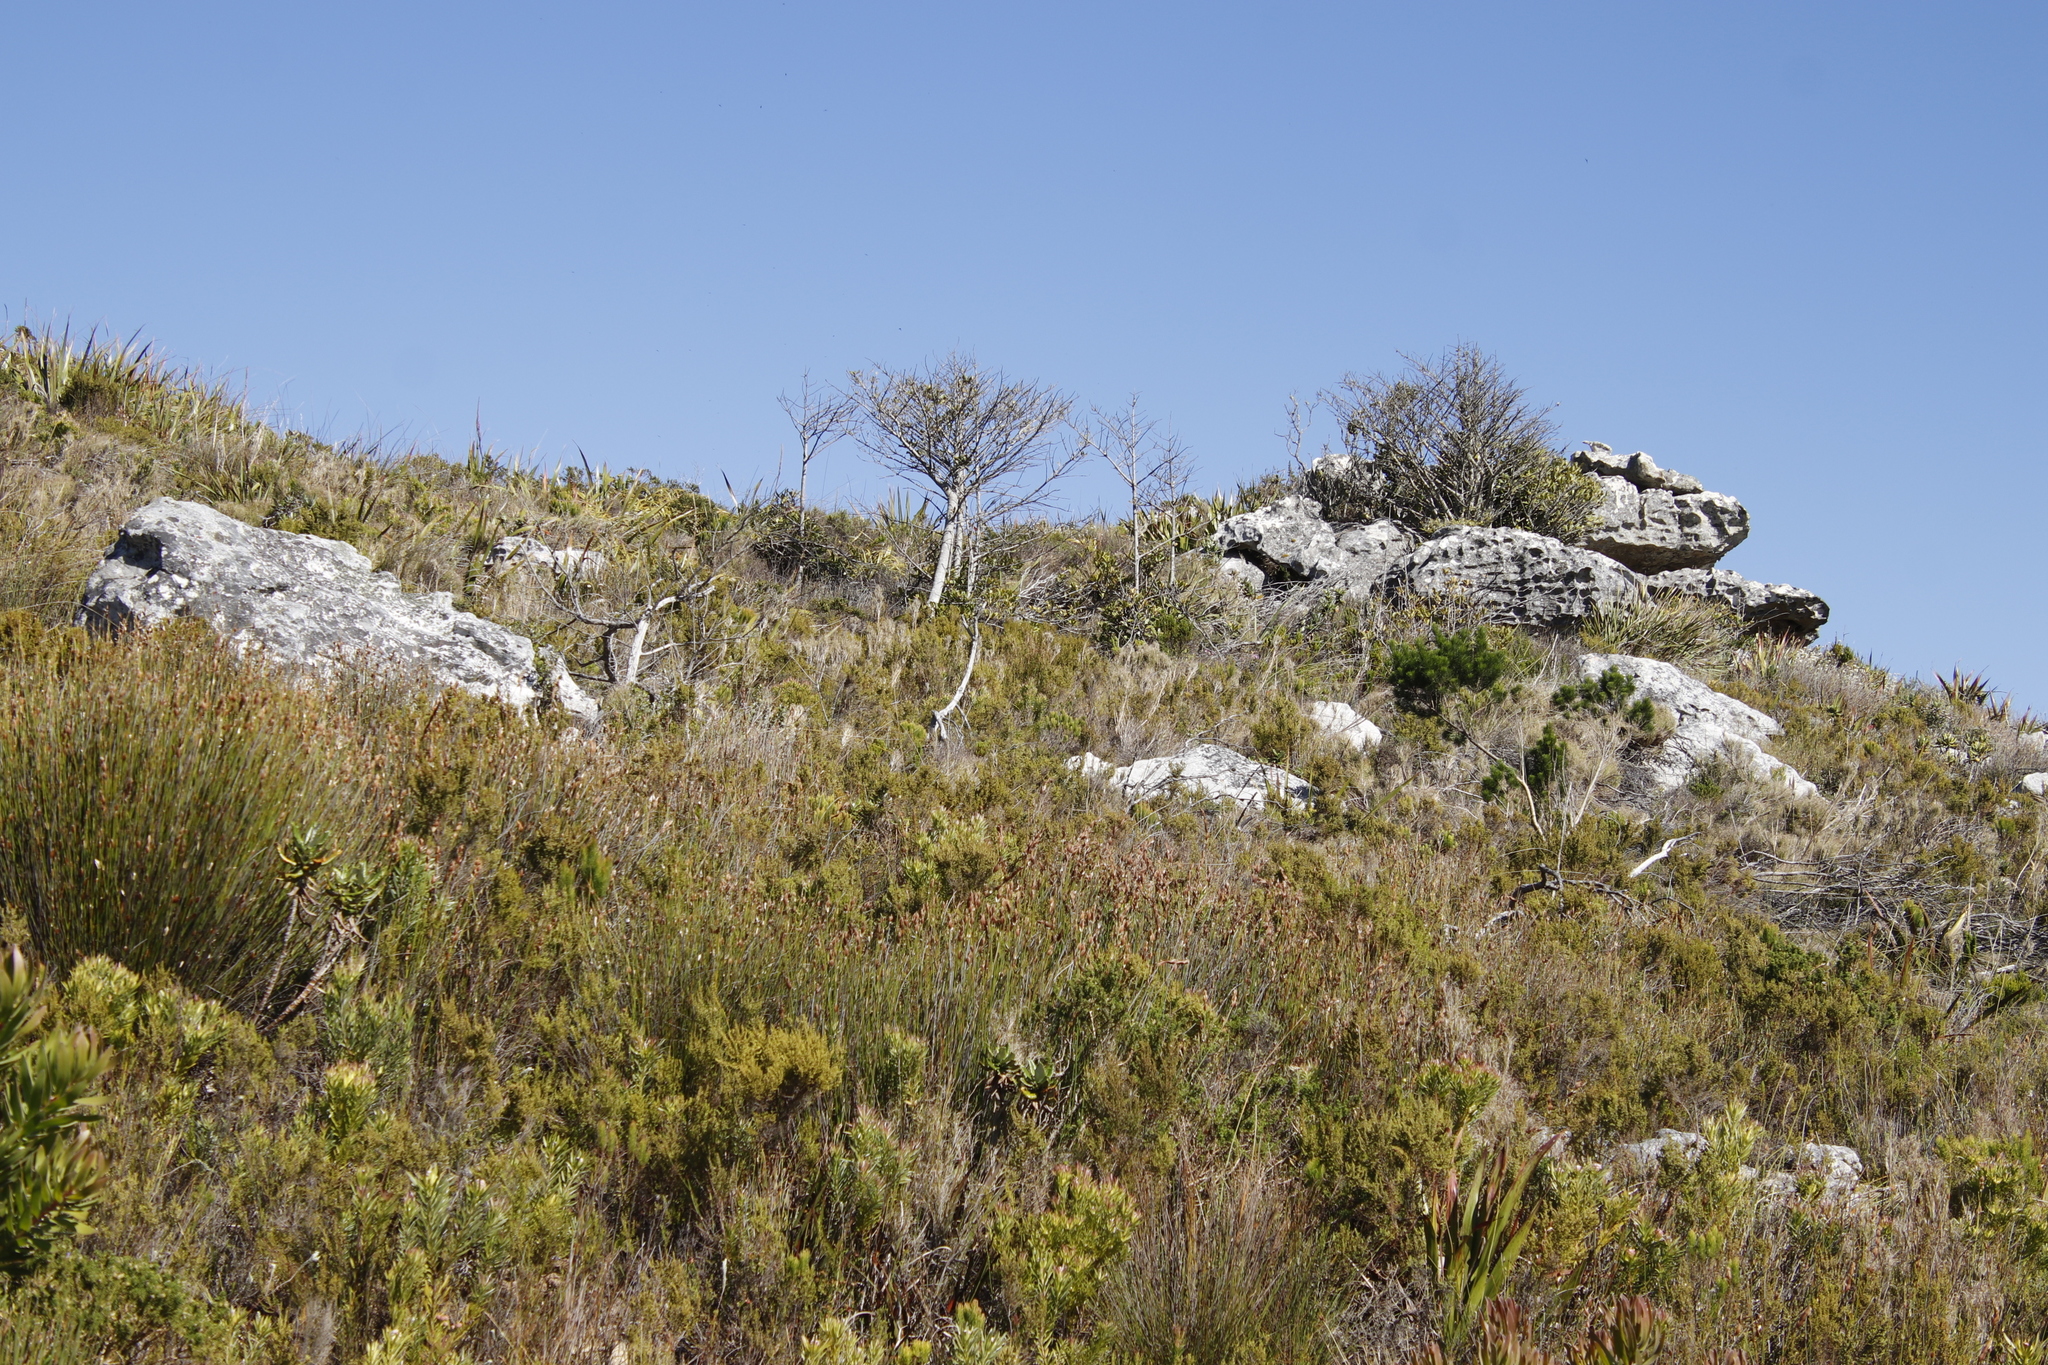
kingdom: Plantae
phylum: Tracheophyta
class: Magnoliopsida
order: Ericales
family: Primulaceae
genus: Myrsine
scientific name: Myrsine melanophloeos
